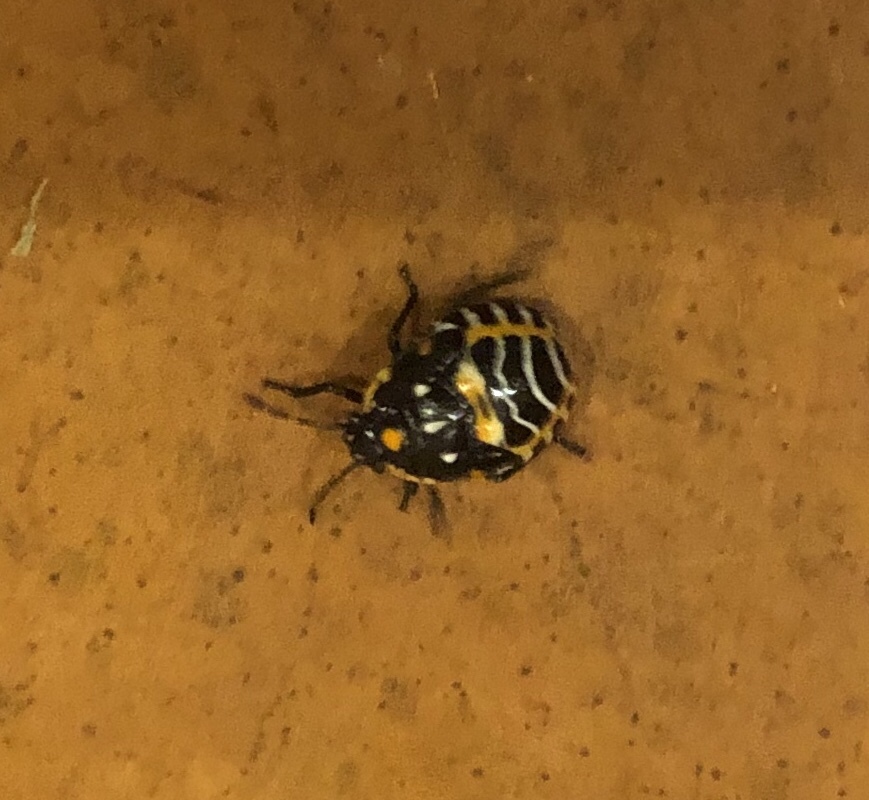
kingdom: Animalia
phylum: Arthropoda
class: Insecta
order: Hemiptera
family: Pentatomidae
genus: Murgantia
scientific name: Murgantia histrionica
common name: Harlequin bug
